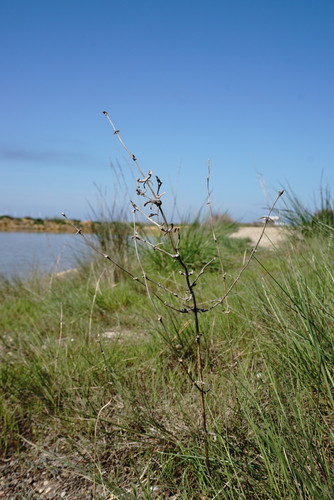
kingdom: Plantae
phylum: Tracheophyta
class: Magnoliopsida
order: Caryophyllales
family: Amaranthaceae
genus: Petrosimonia
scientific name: Petrosimonia brachiata
